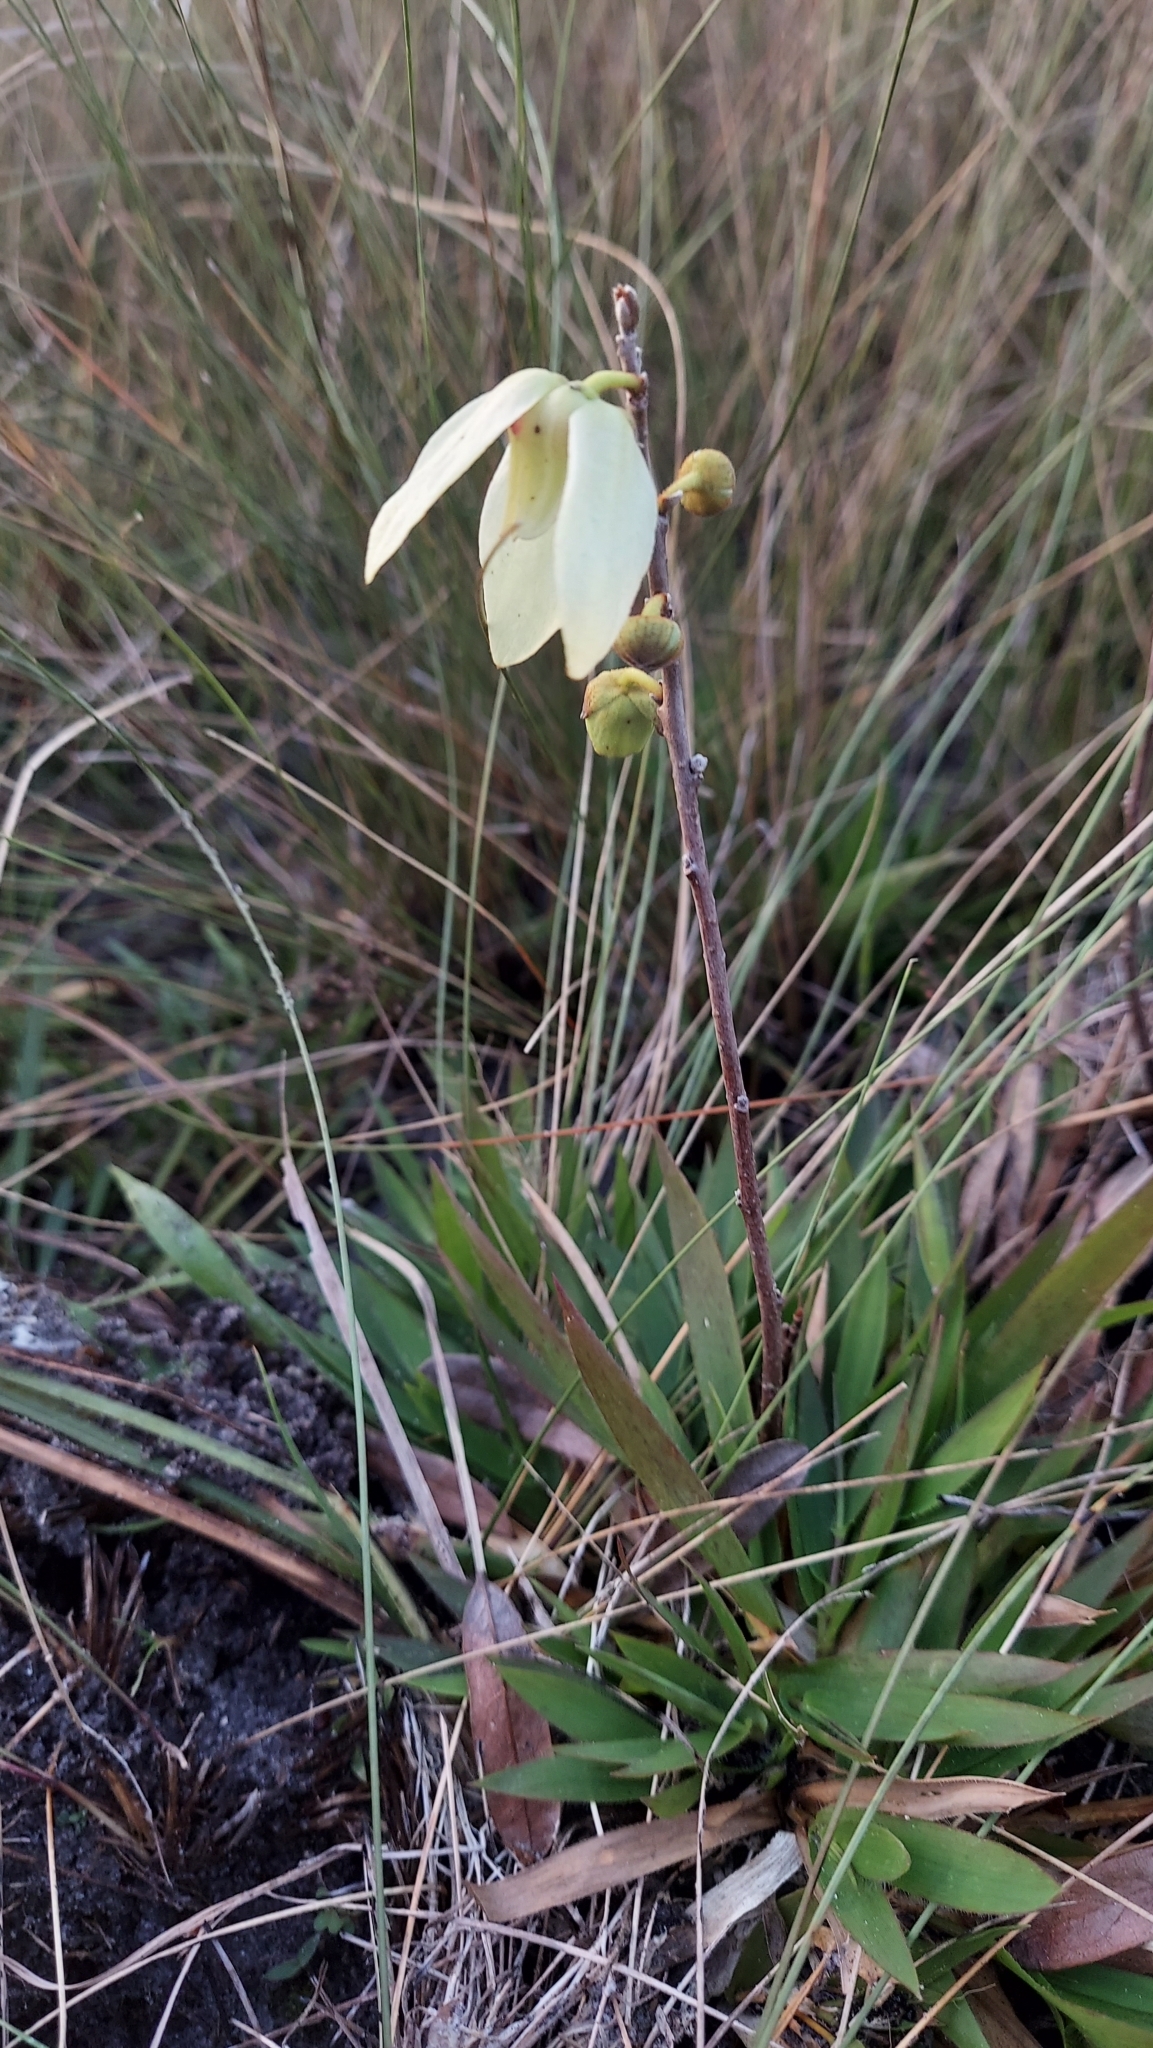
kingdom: Plantae
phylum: Tracheophyta
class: Magnoliopsida
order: Magnoliales
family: Annonaceae
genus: Asimina
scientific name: Asimina reticulata
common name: Flag pawpaw
